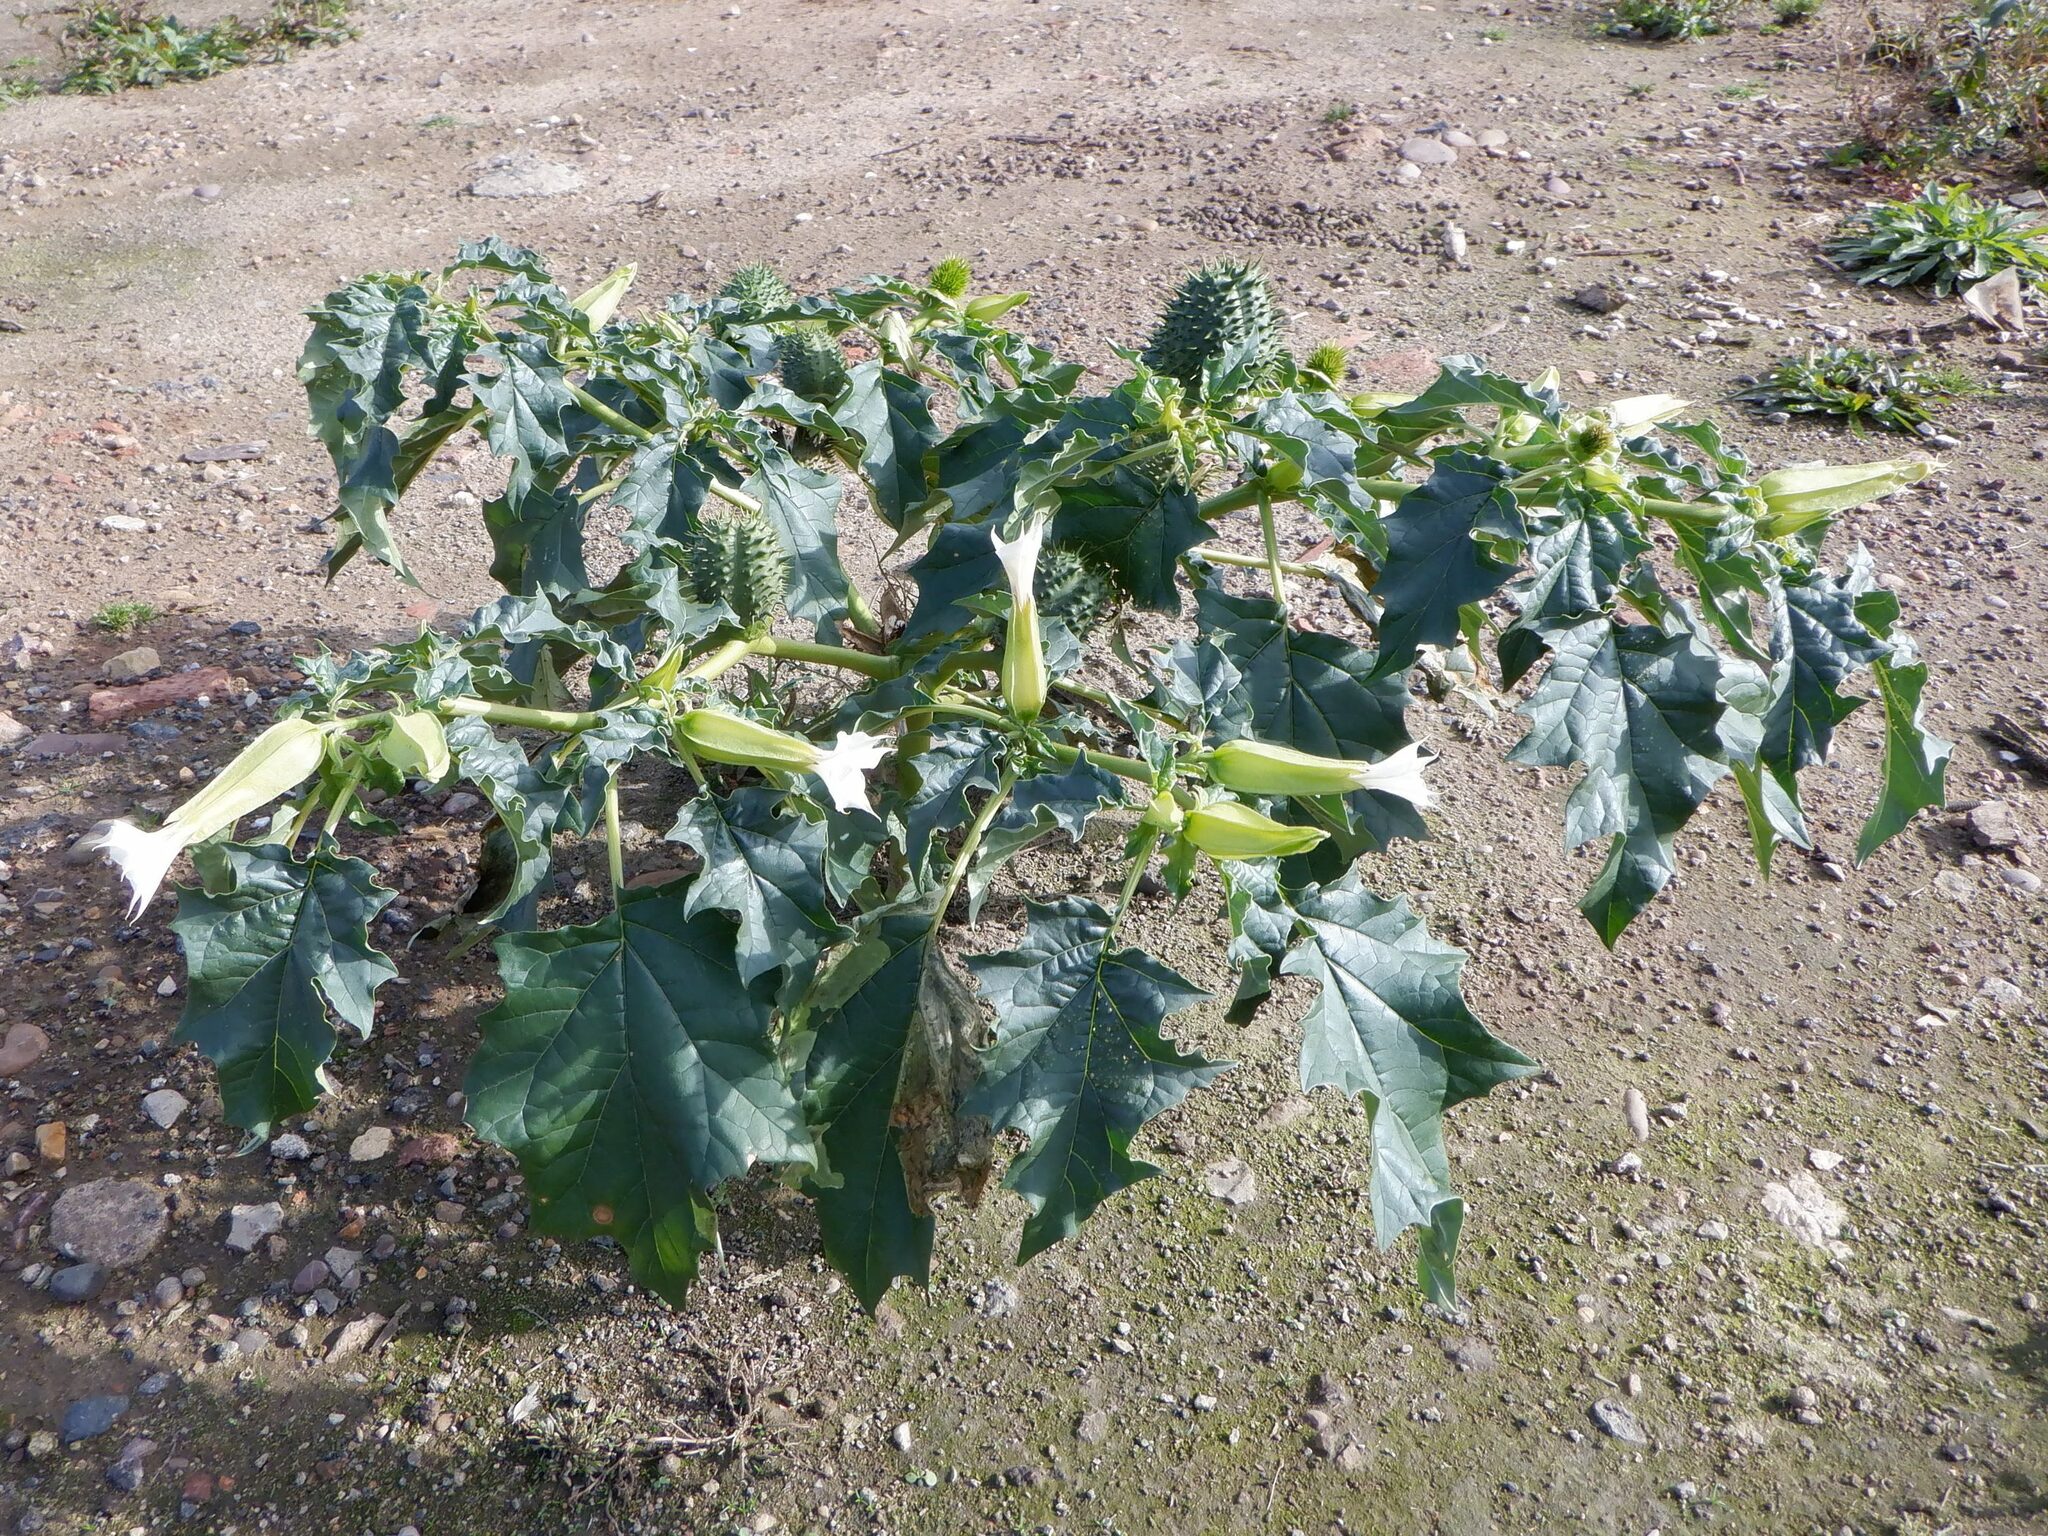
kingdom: Plantae
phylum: Tracheophyta
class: Magnoliopsida
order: Solanales
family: Solanaceae
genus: Datura
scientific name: Datura stramonium
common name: Thorn-apple
